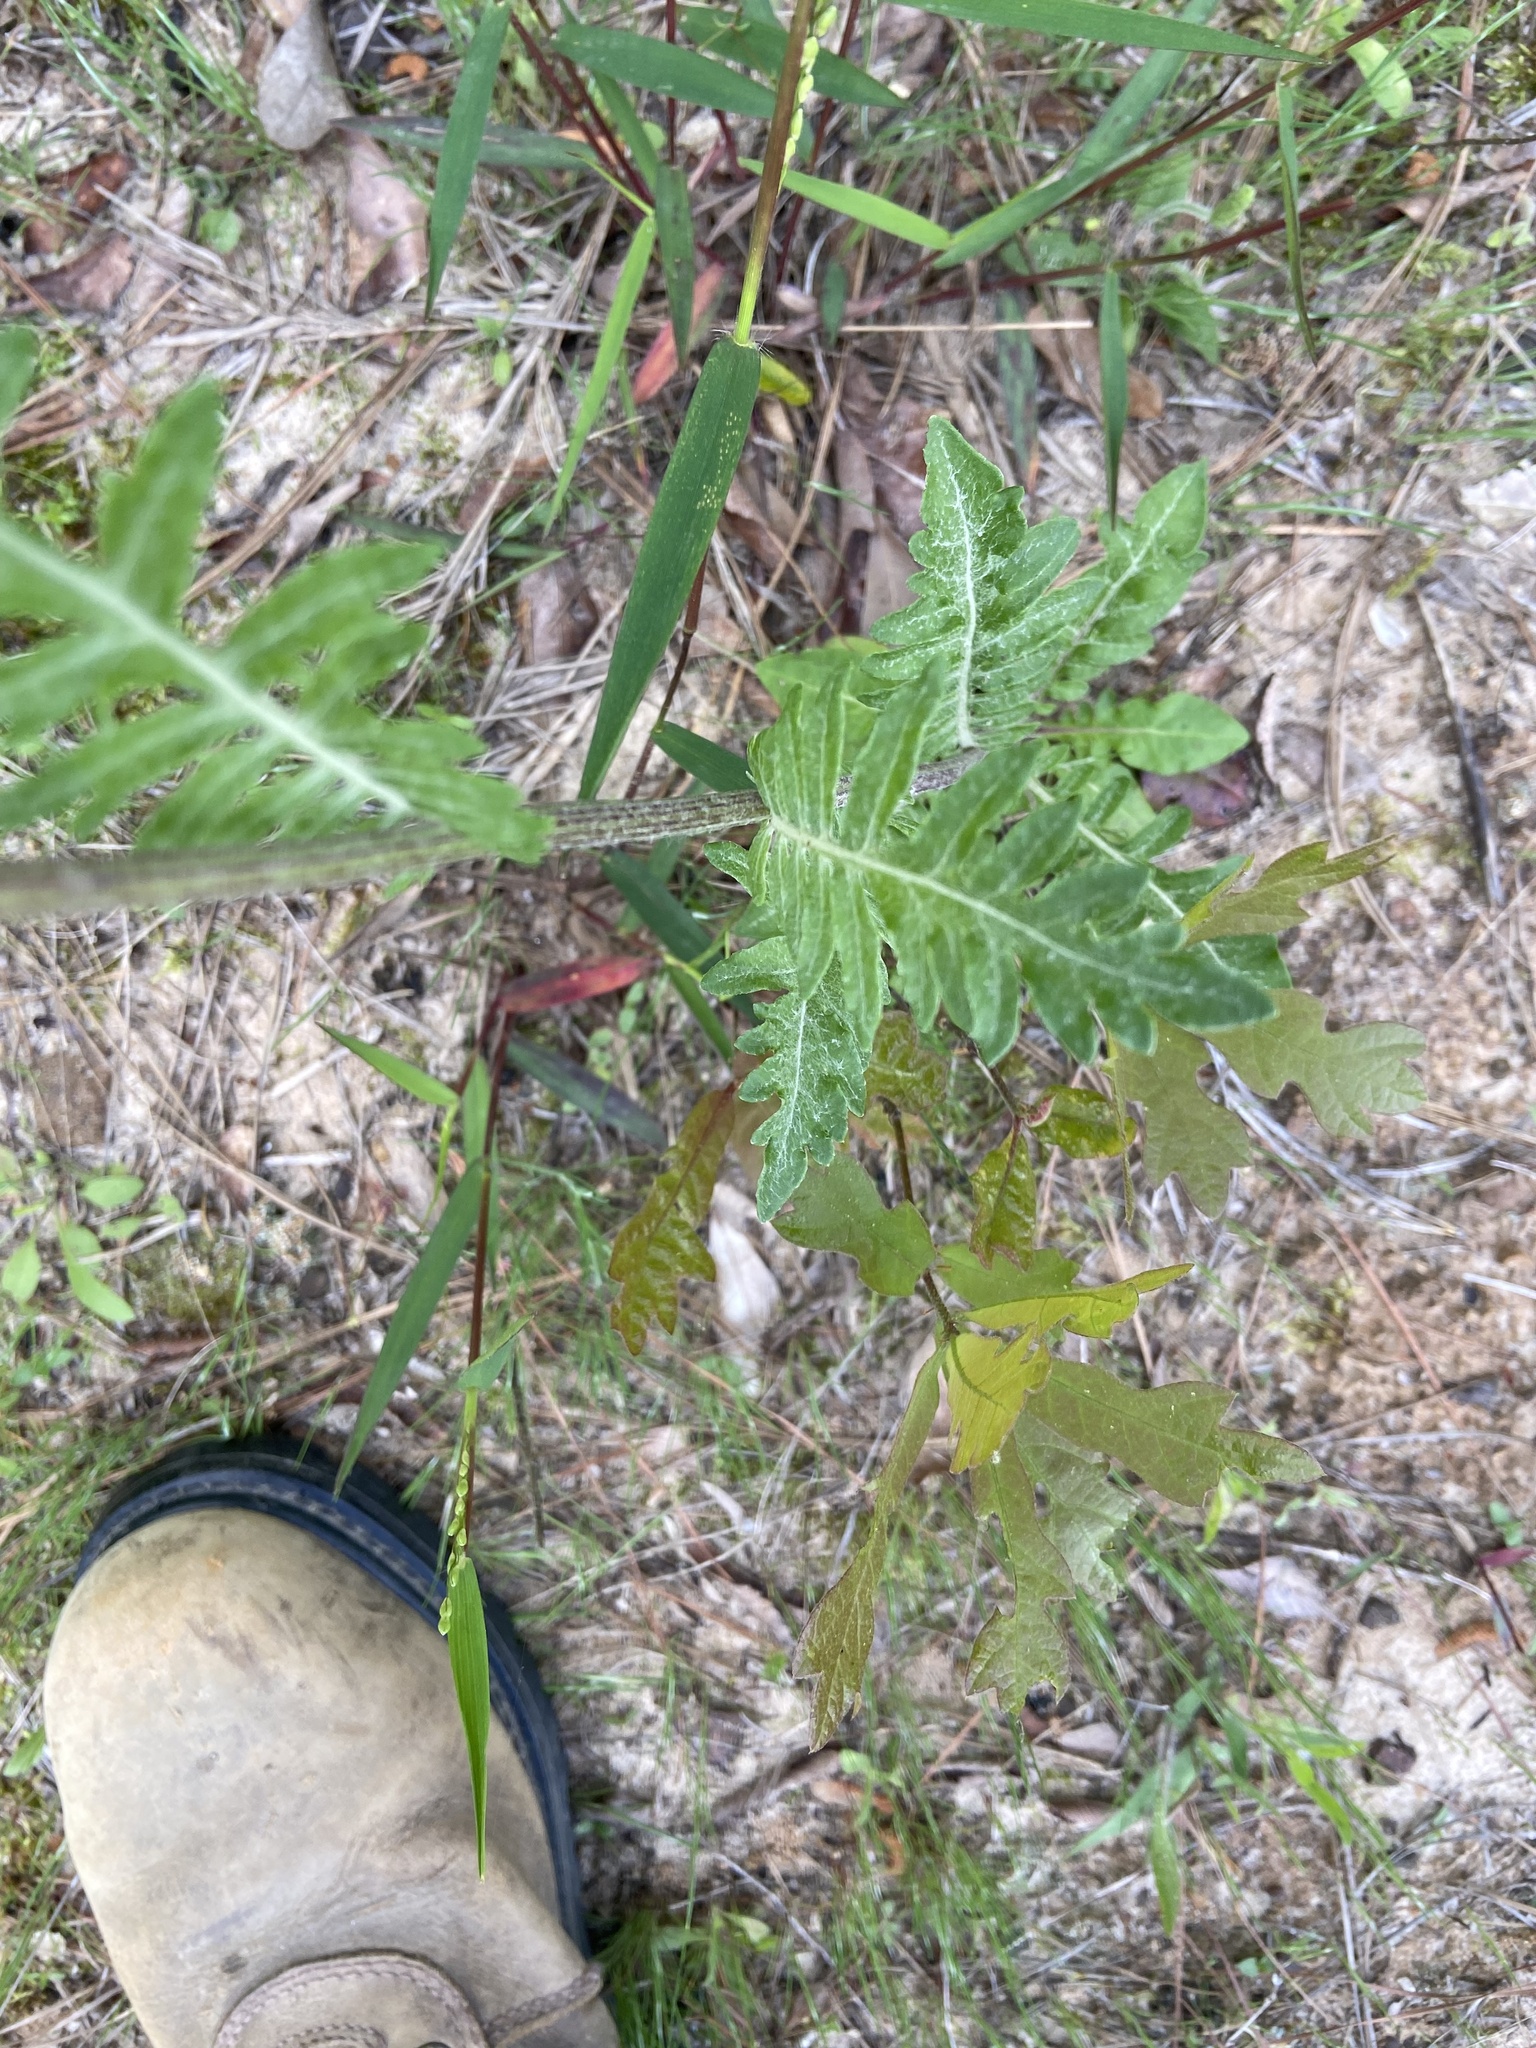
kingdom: Plantae
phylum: Tracheophyta
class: Magnoliopsida
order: Asterales
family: Asteraceae
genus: Hymenopappus
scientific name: Hymenopappus artemisiifolius
